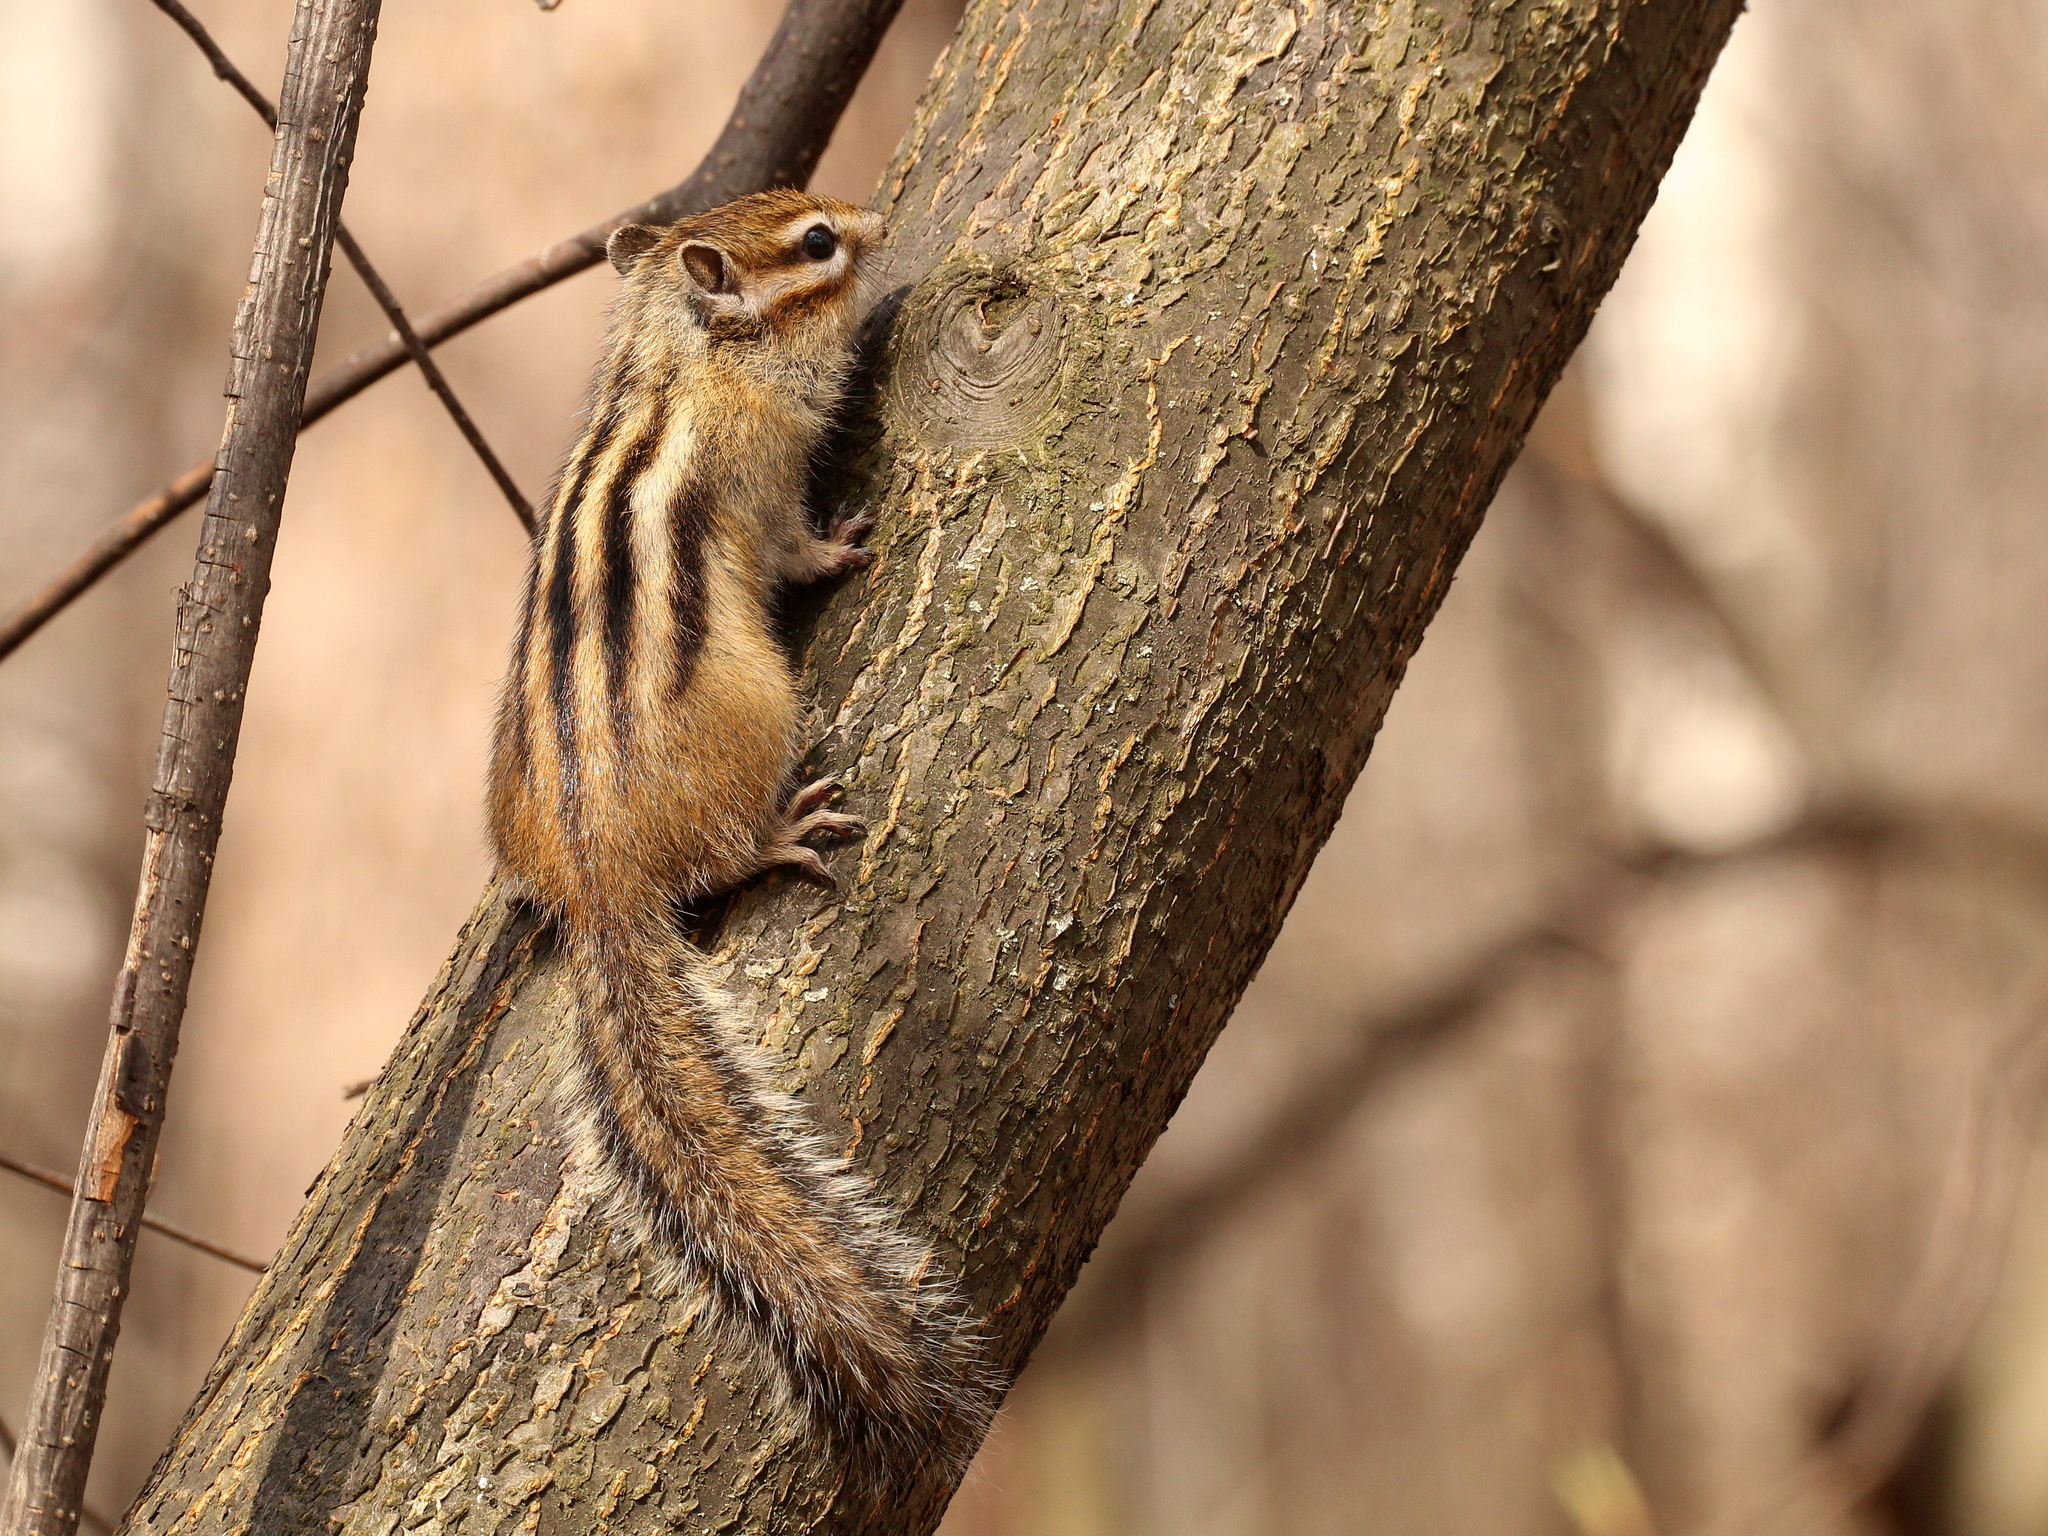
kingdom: Animalia
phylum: Chordata
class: Mammalia
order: Rodentia
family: Sciuridae
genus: Tamias
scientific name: Tamias sibiricus
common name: Siberian chipmunk
